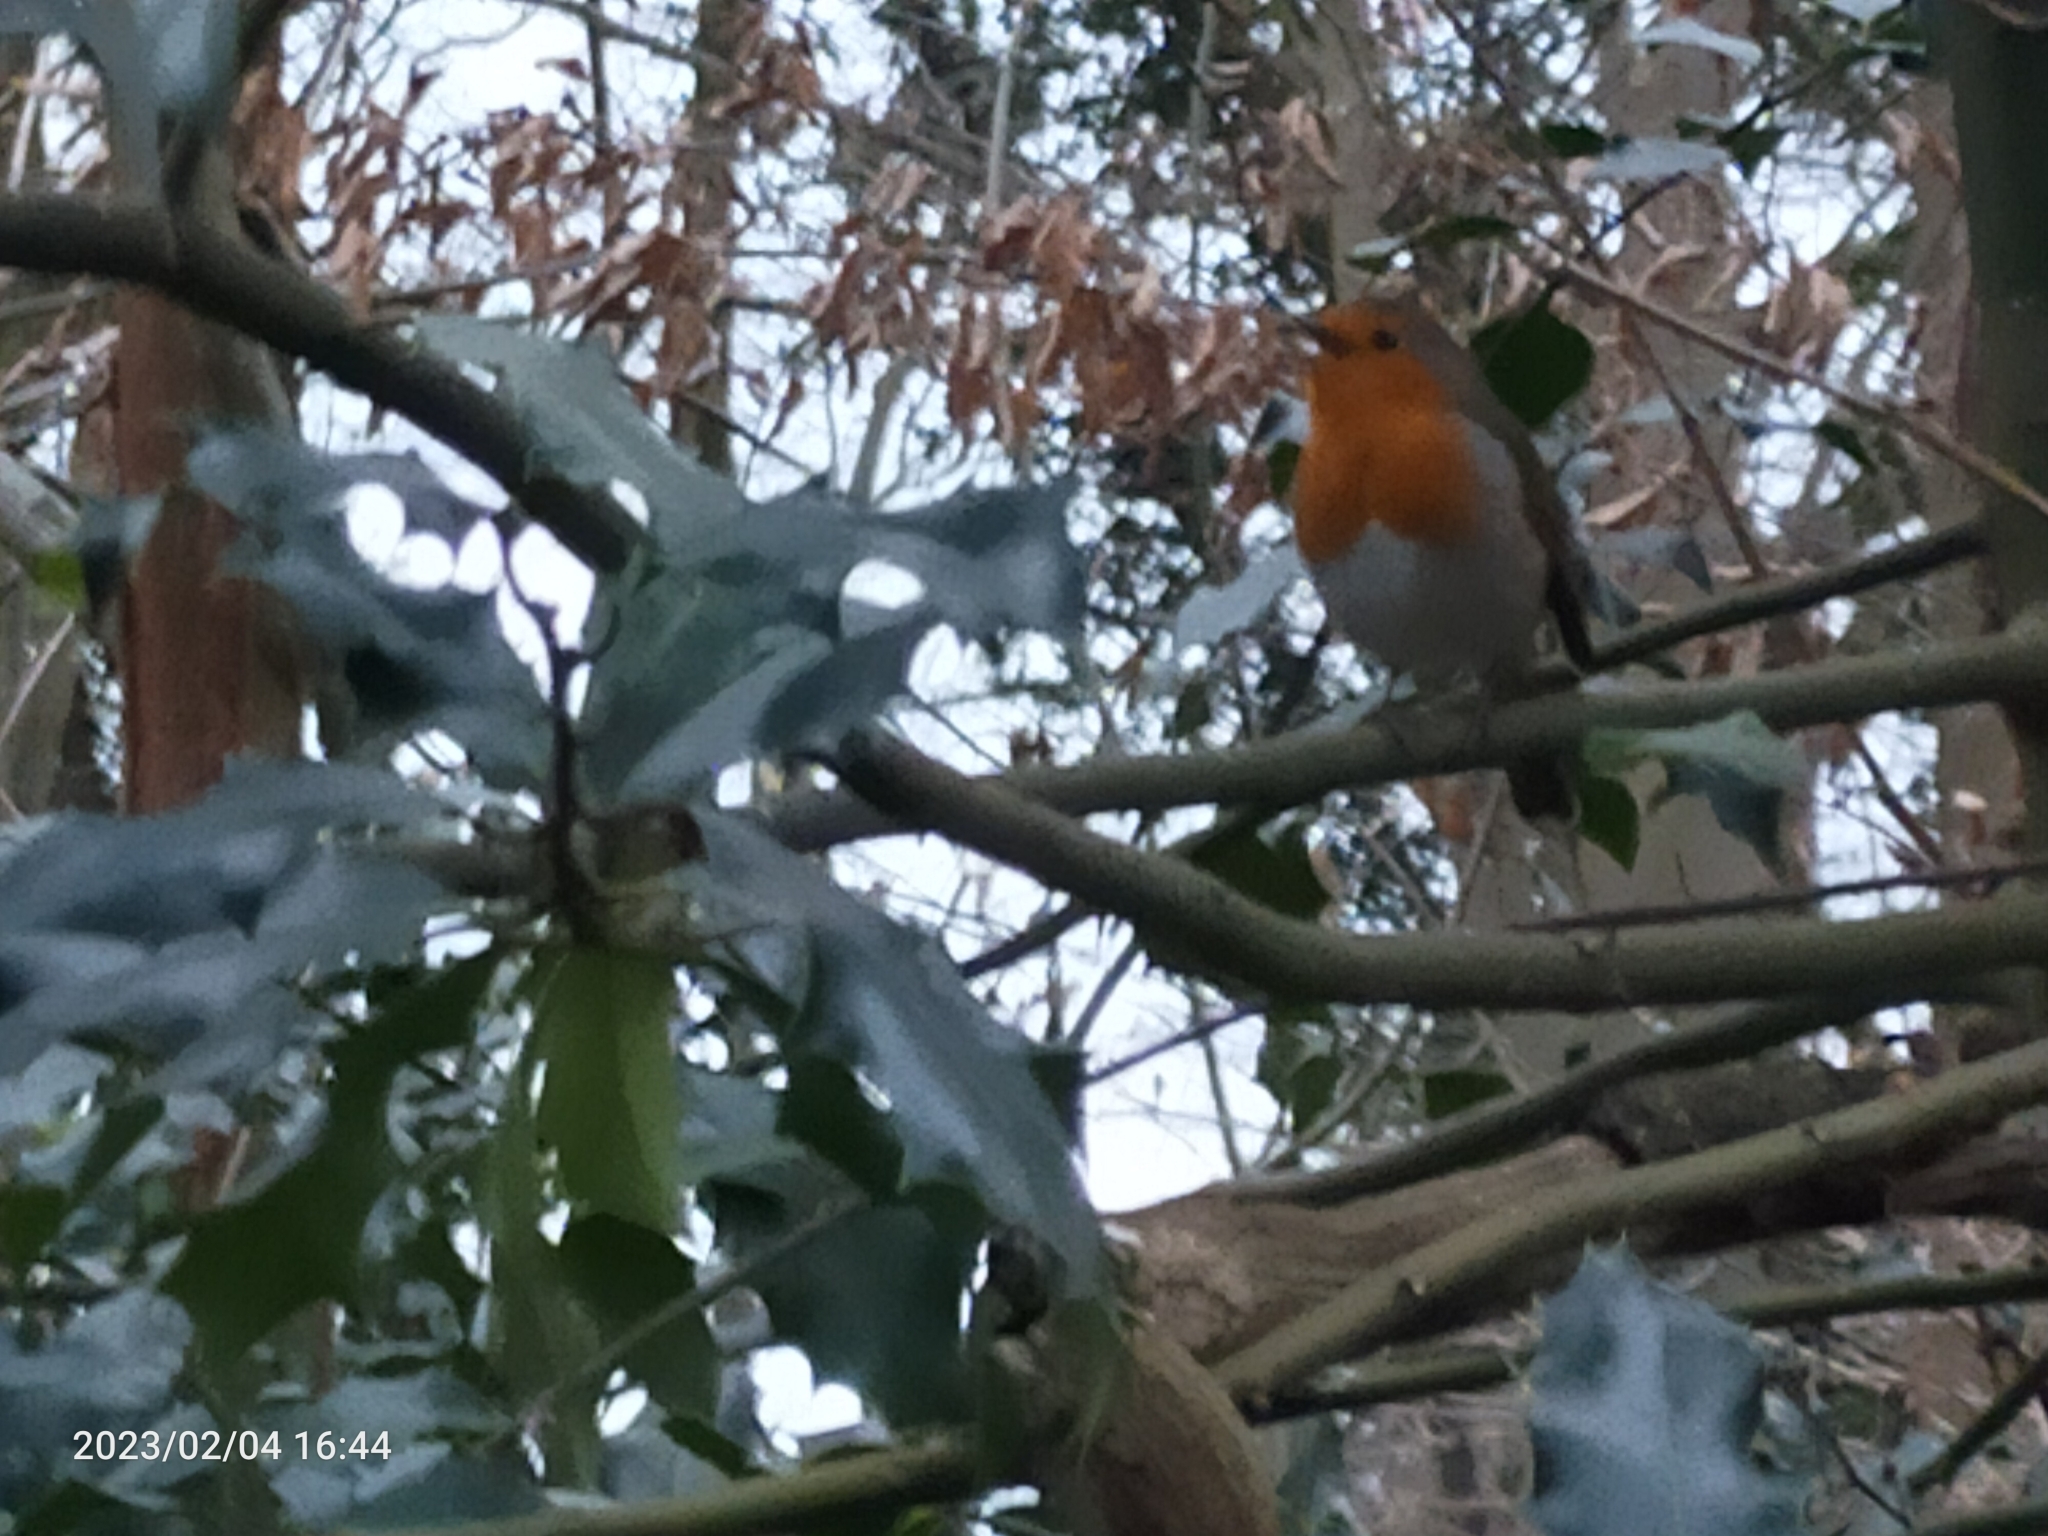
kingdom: Animalia
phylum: Chordata
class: Aves
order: Passeriformes
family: Muscicapidae
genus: Erithacus
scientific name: Erithacus rubecula
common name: European robin
